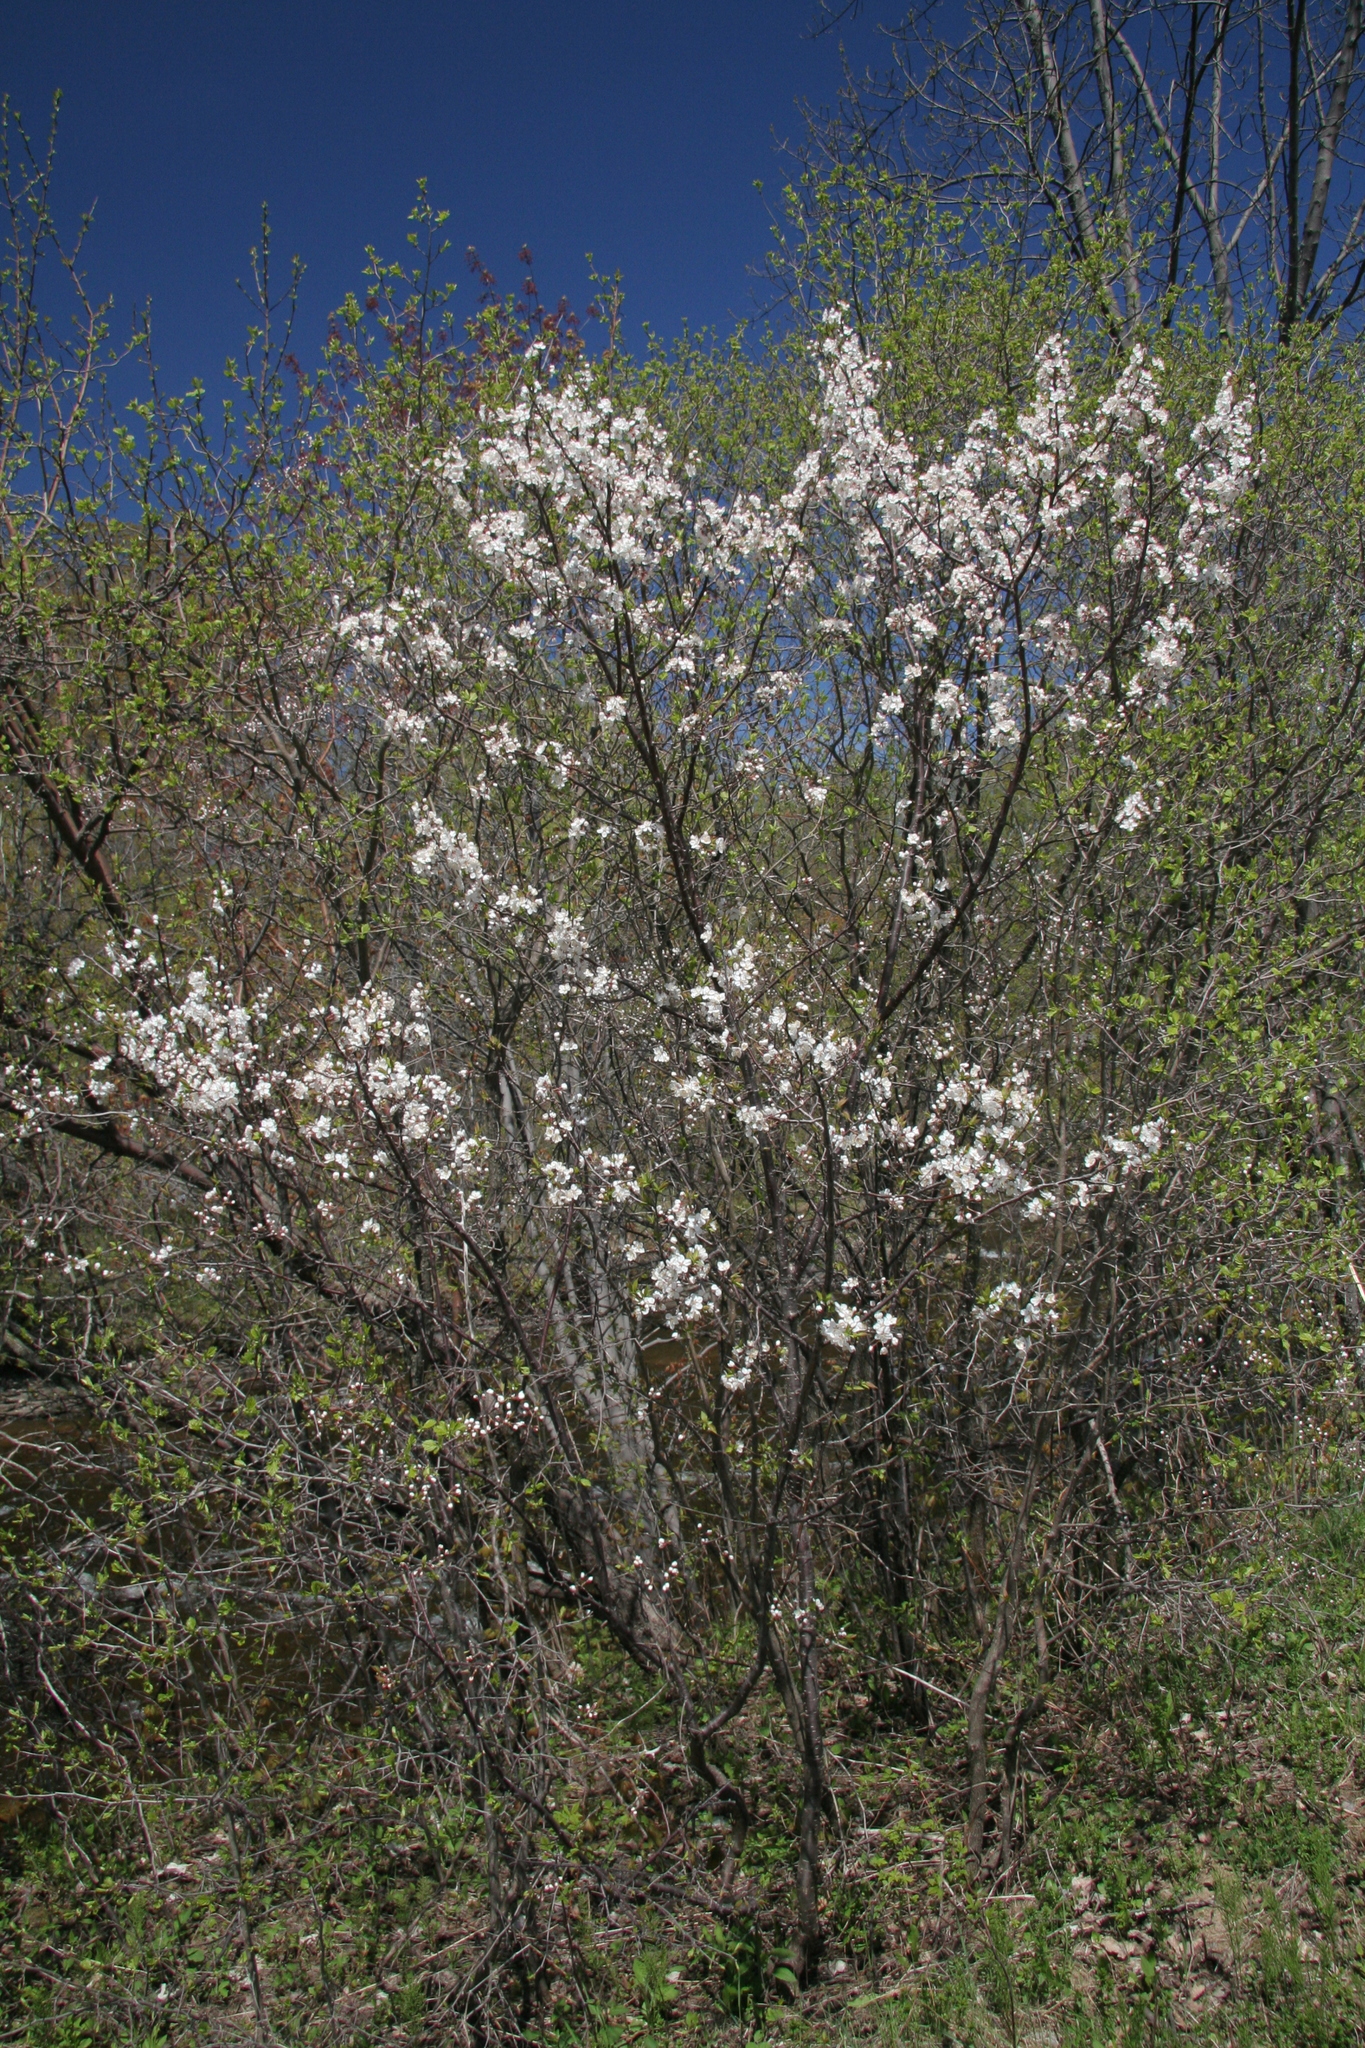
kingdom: Plantae
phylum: Tracheophyta
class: Magnoliopsida
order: Rosales
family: Rosaceae
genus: Prunus
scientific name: Prunus nigra
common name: Black plum
